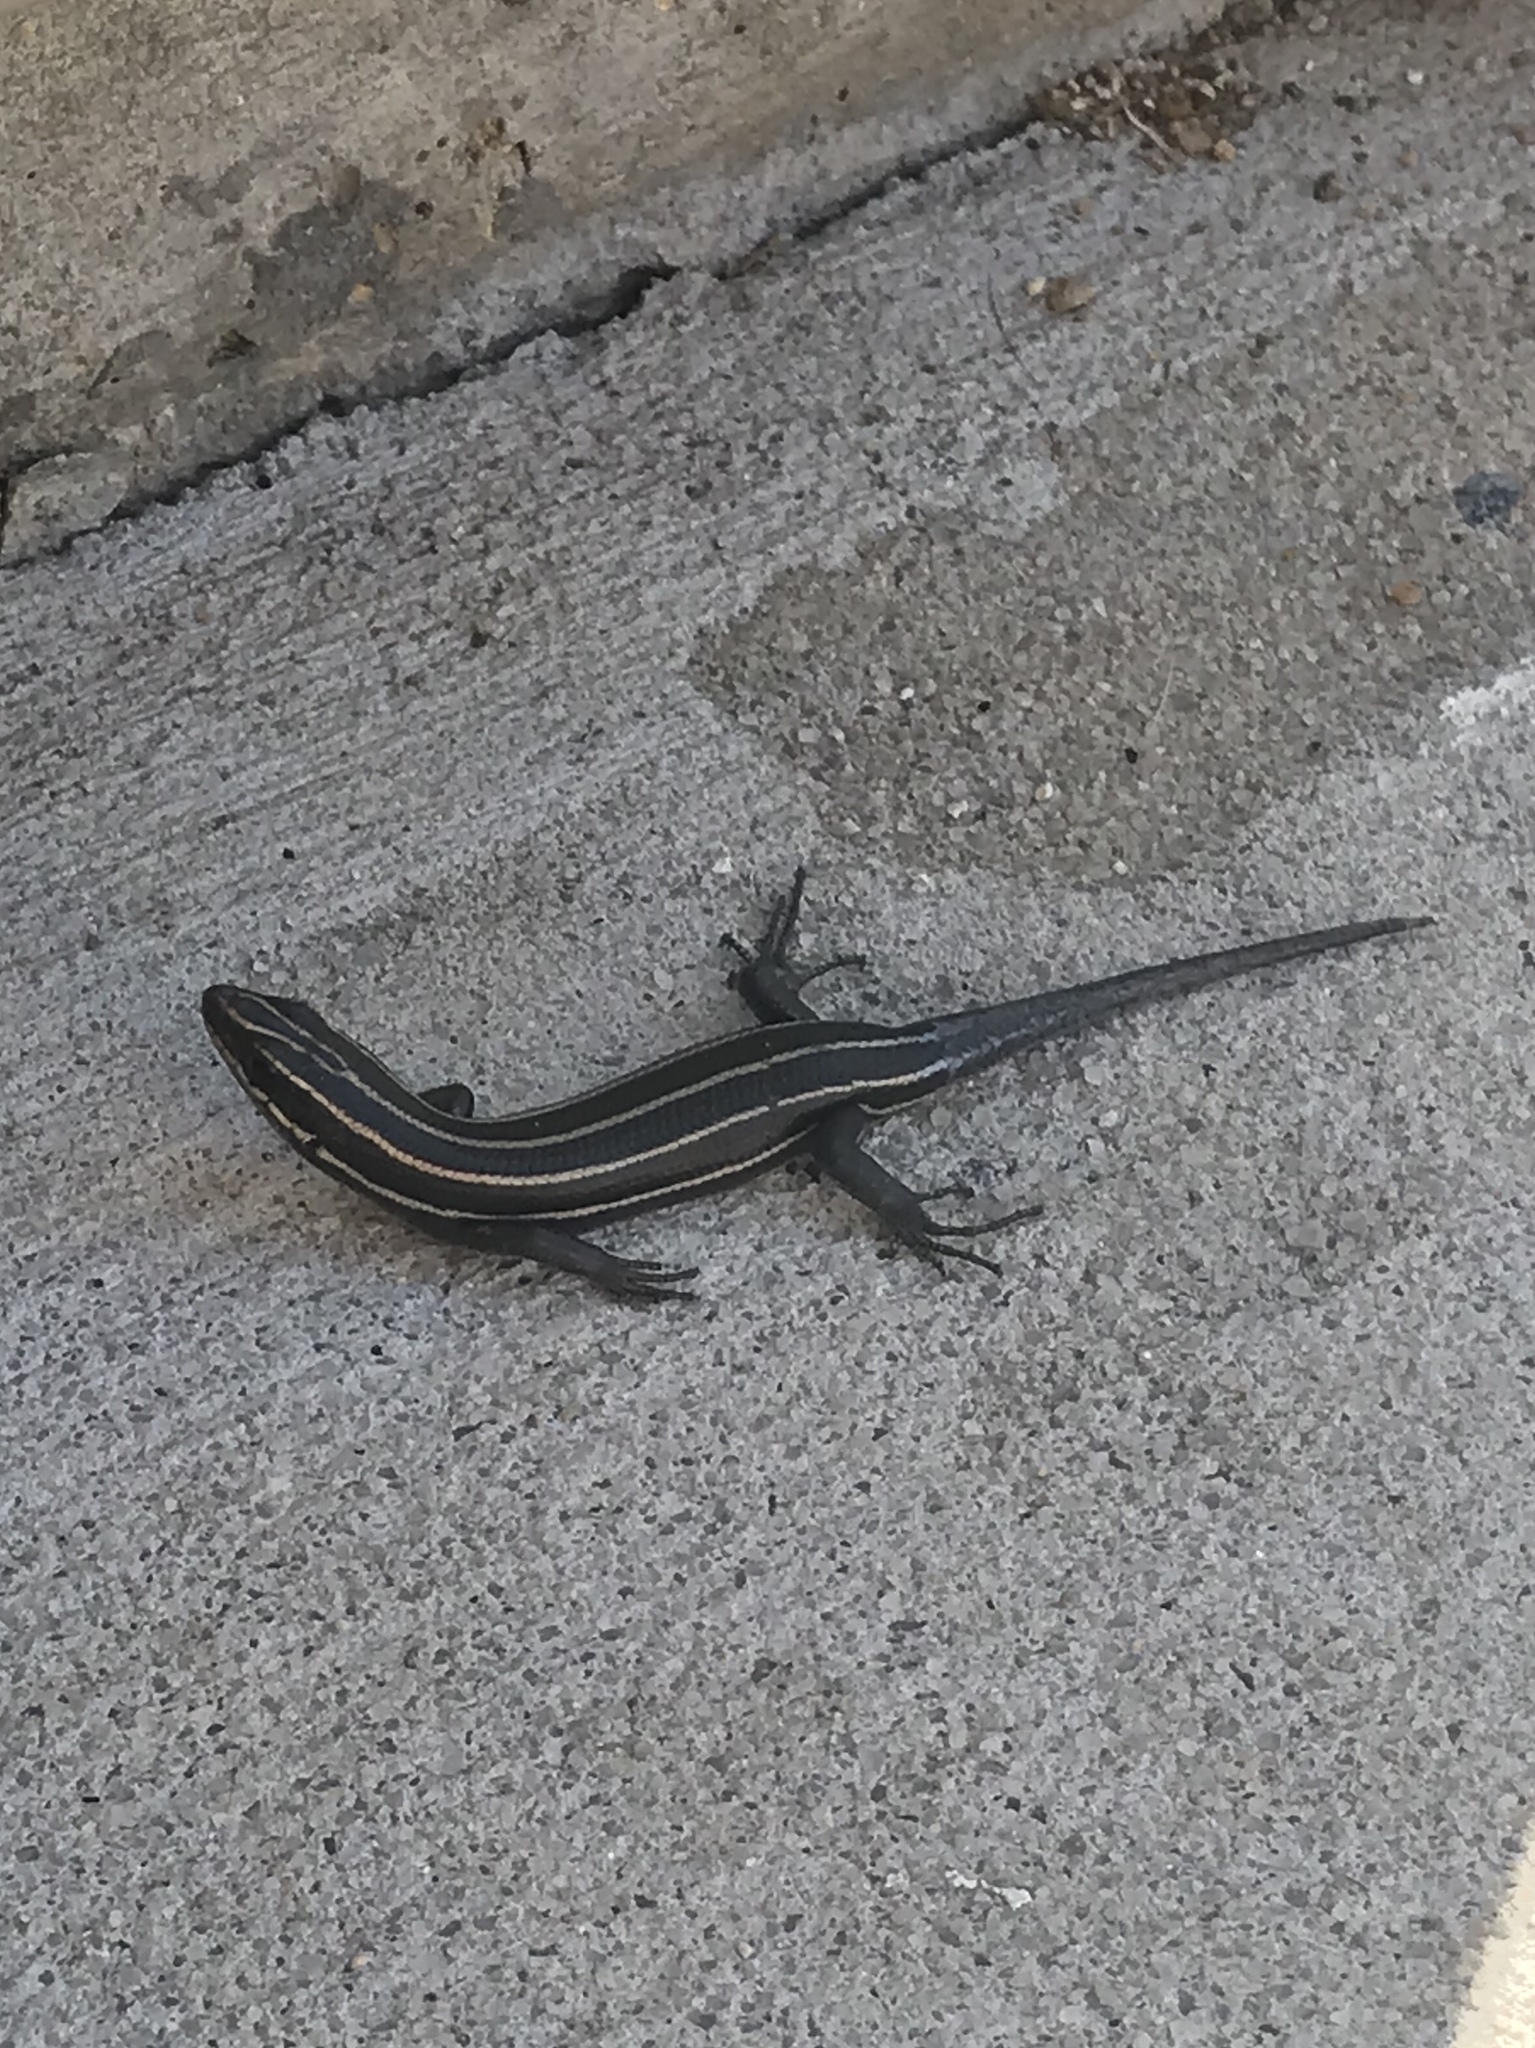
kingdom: Animalia
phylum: Chordata
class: Squamata
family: Scincidae
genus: Plestiodon
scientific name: Plestiodon fasciatus
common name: Five-lined skink
